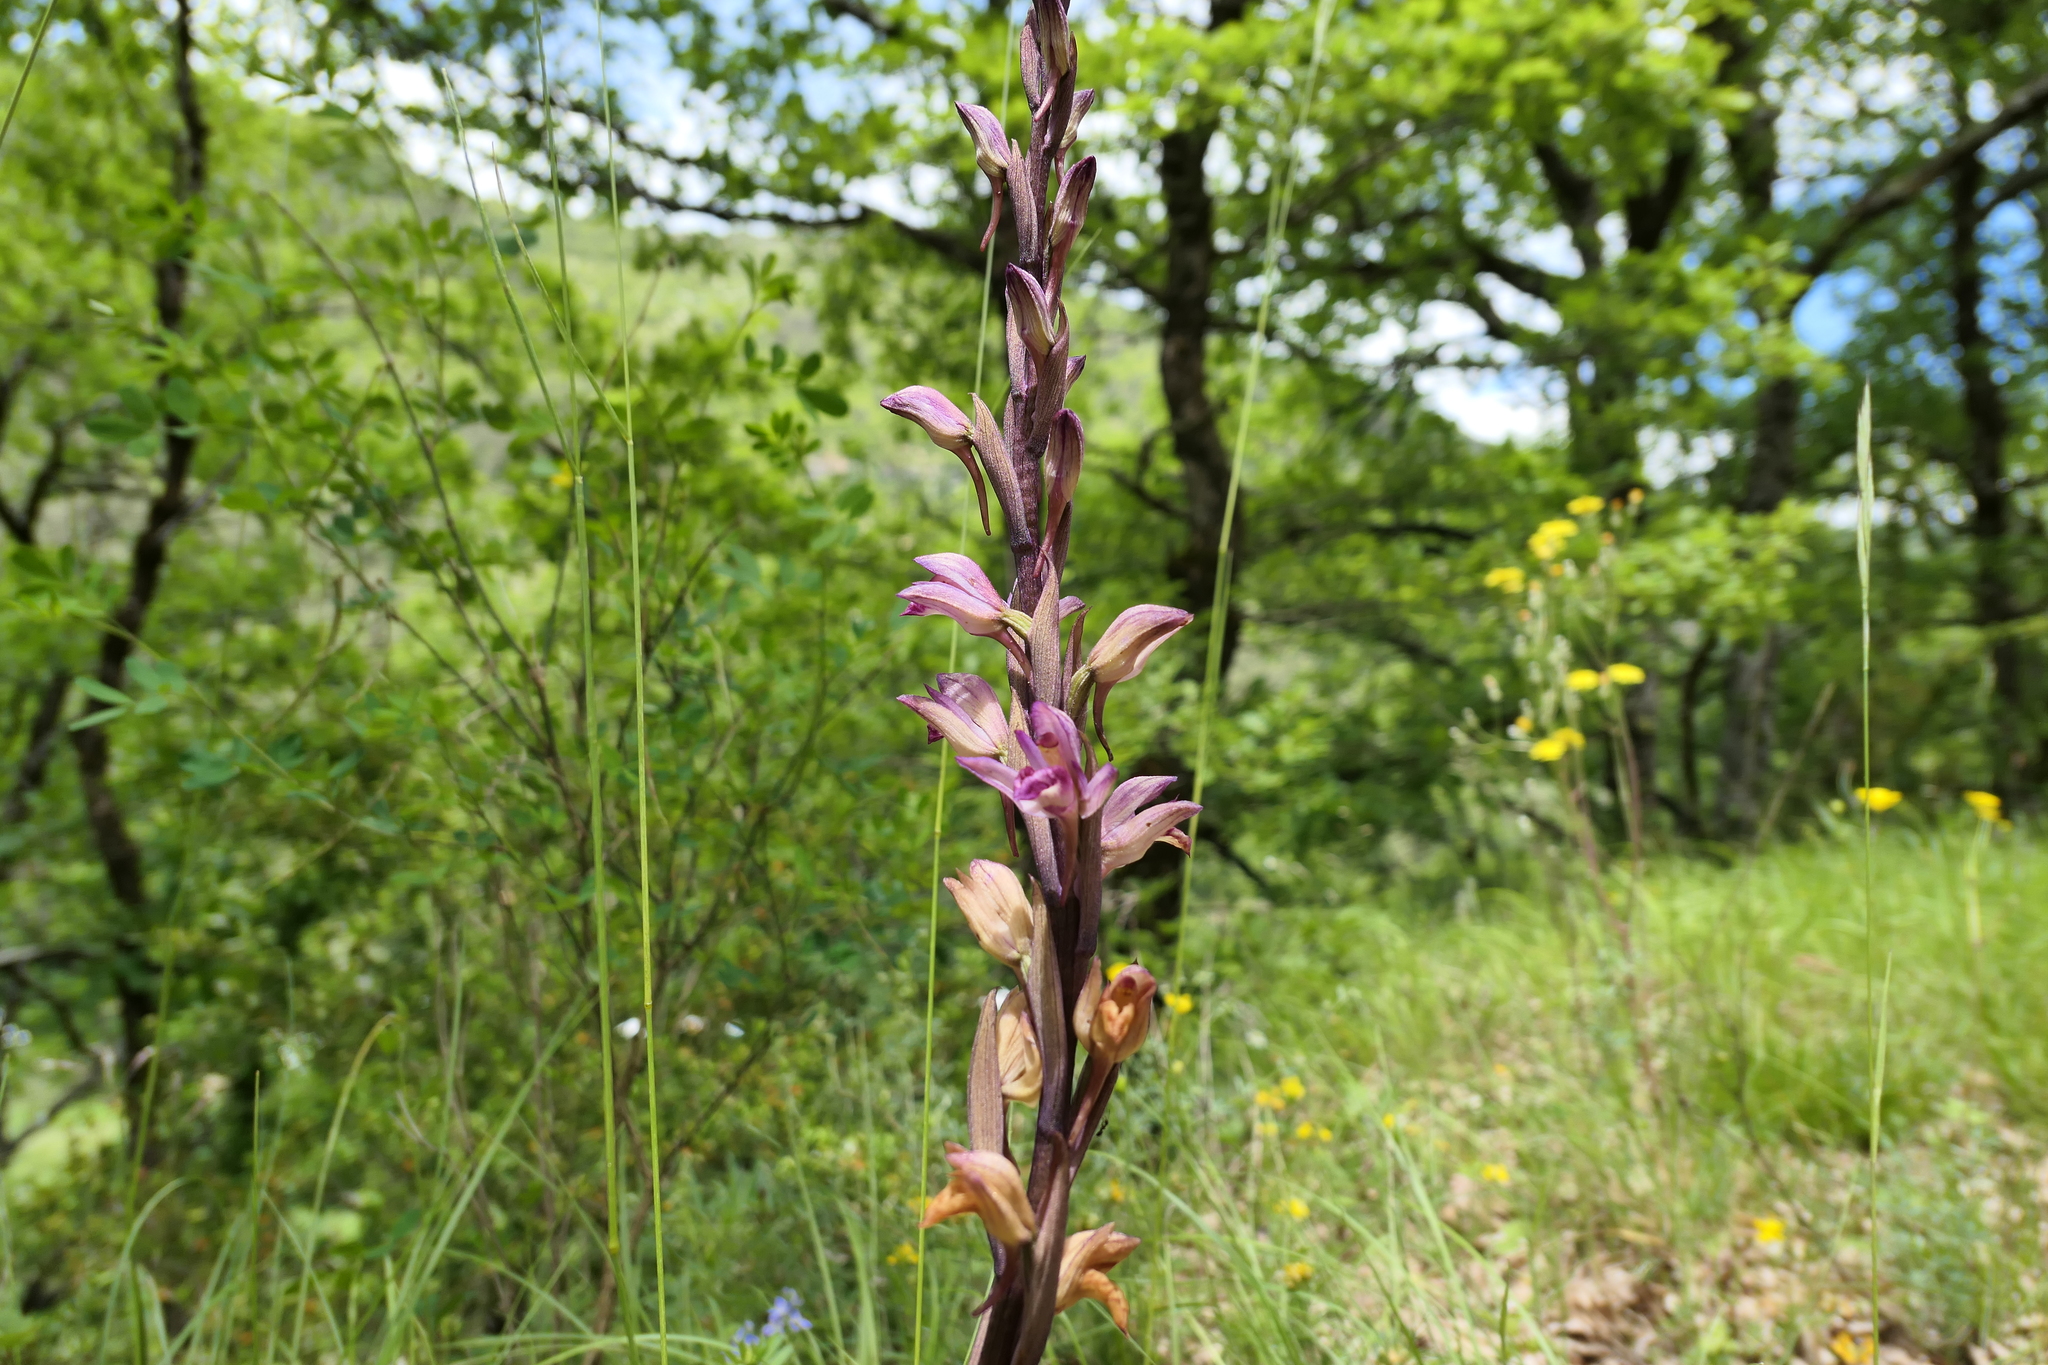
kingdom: Plantae
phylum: Tracheophyta
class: Liliopsida
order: Asparagales
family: Orchidaceae
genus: Limodorum
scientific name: Limodorum abortivum
